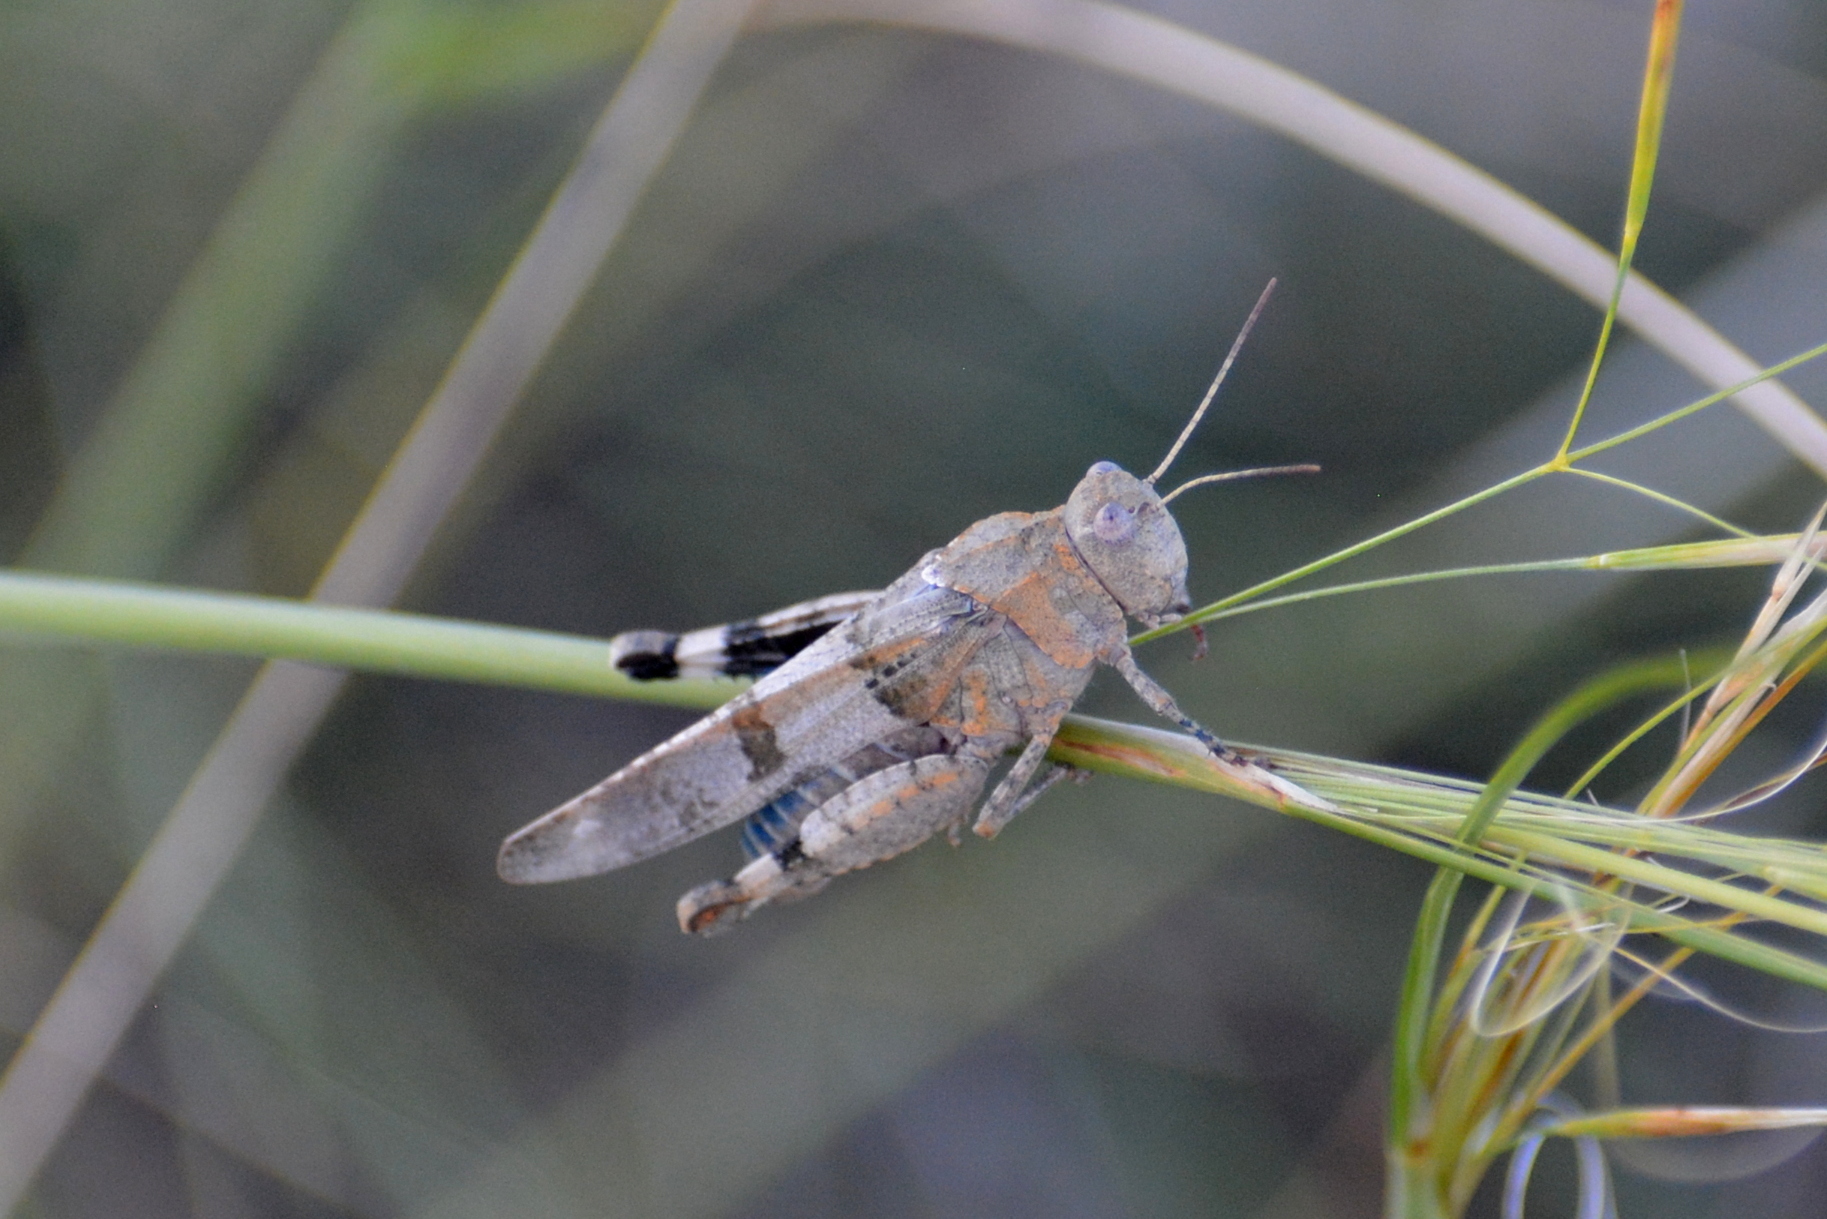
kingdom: Animalia
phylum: Arthropoda
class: Insecta
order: Orthoptera
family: Acrididae
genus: Oedipoda
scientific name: Oedipoda caerulescens
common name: Blue-winged grasshopper
